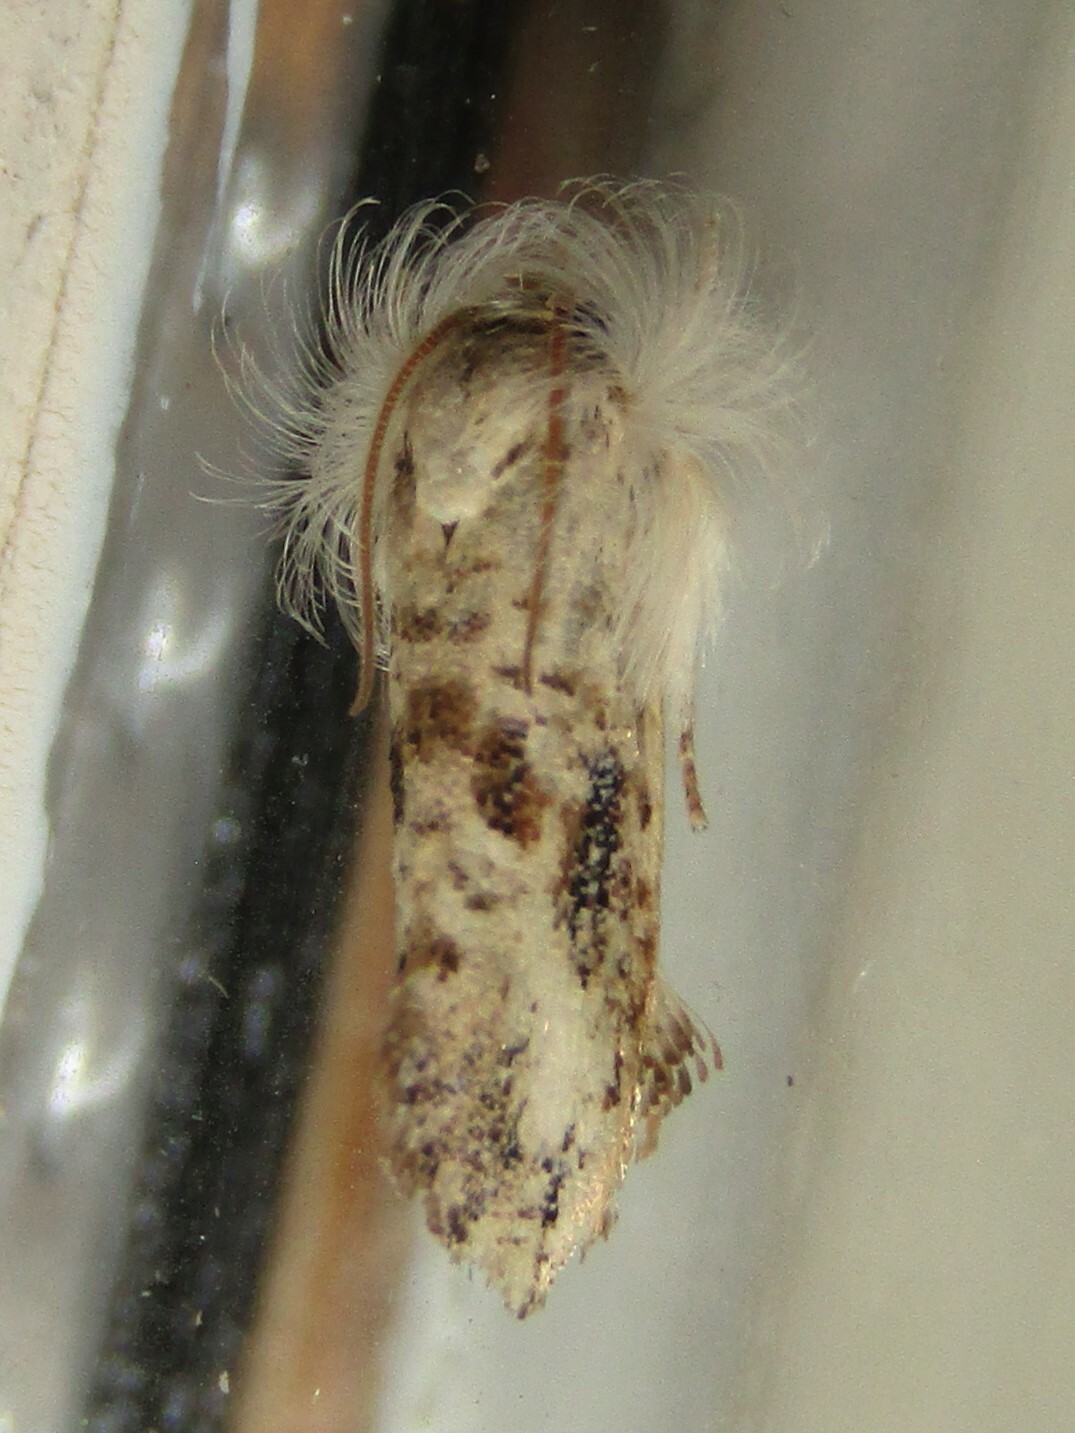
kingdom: Animalia
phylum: Arthropoda
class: Insecta
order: Lepidoptera
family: Tineidae
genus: Acrolophus
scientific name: Acrolophus mycetophagus
